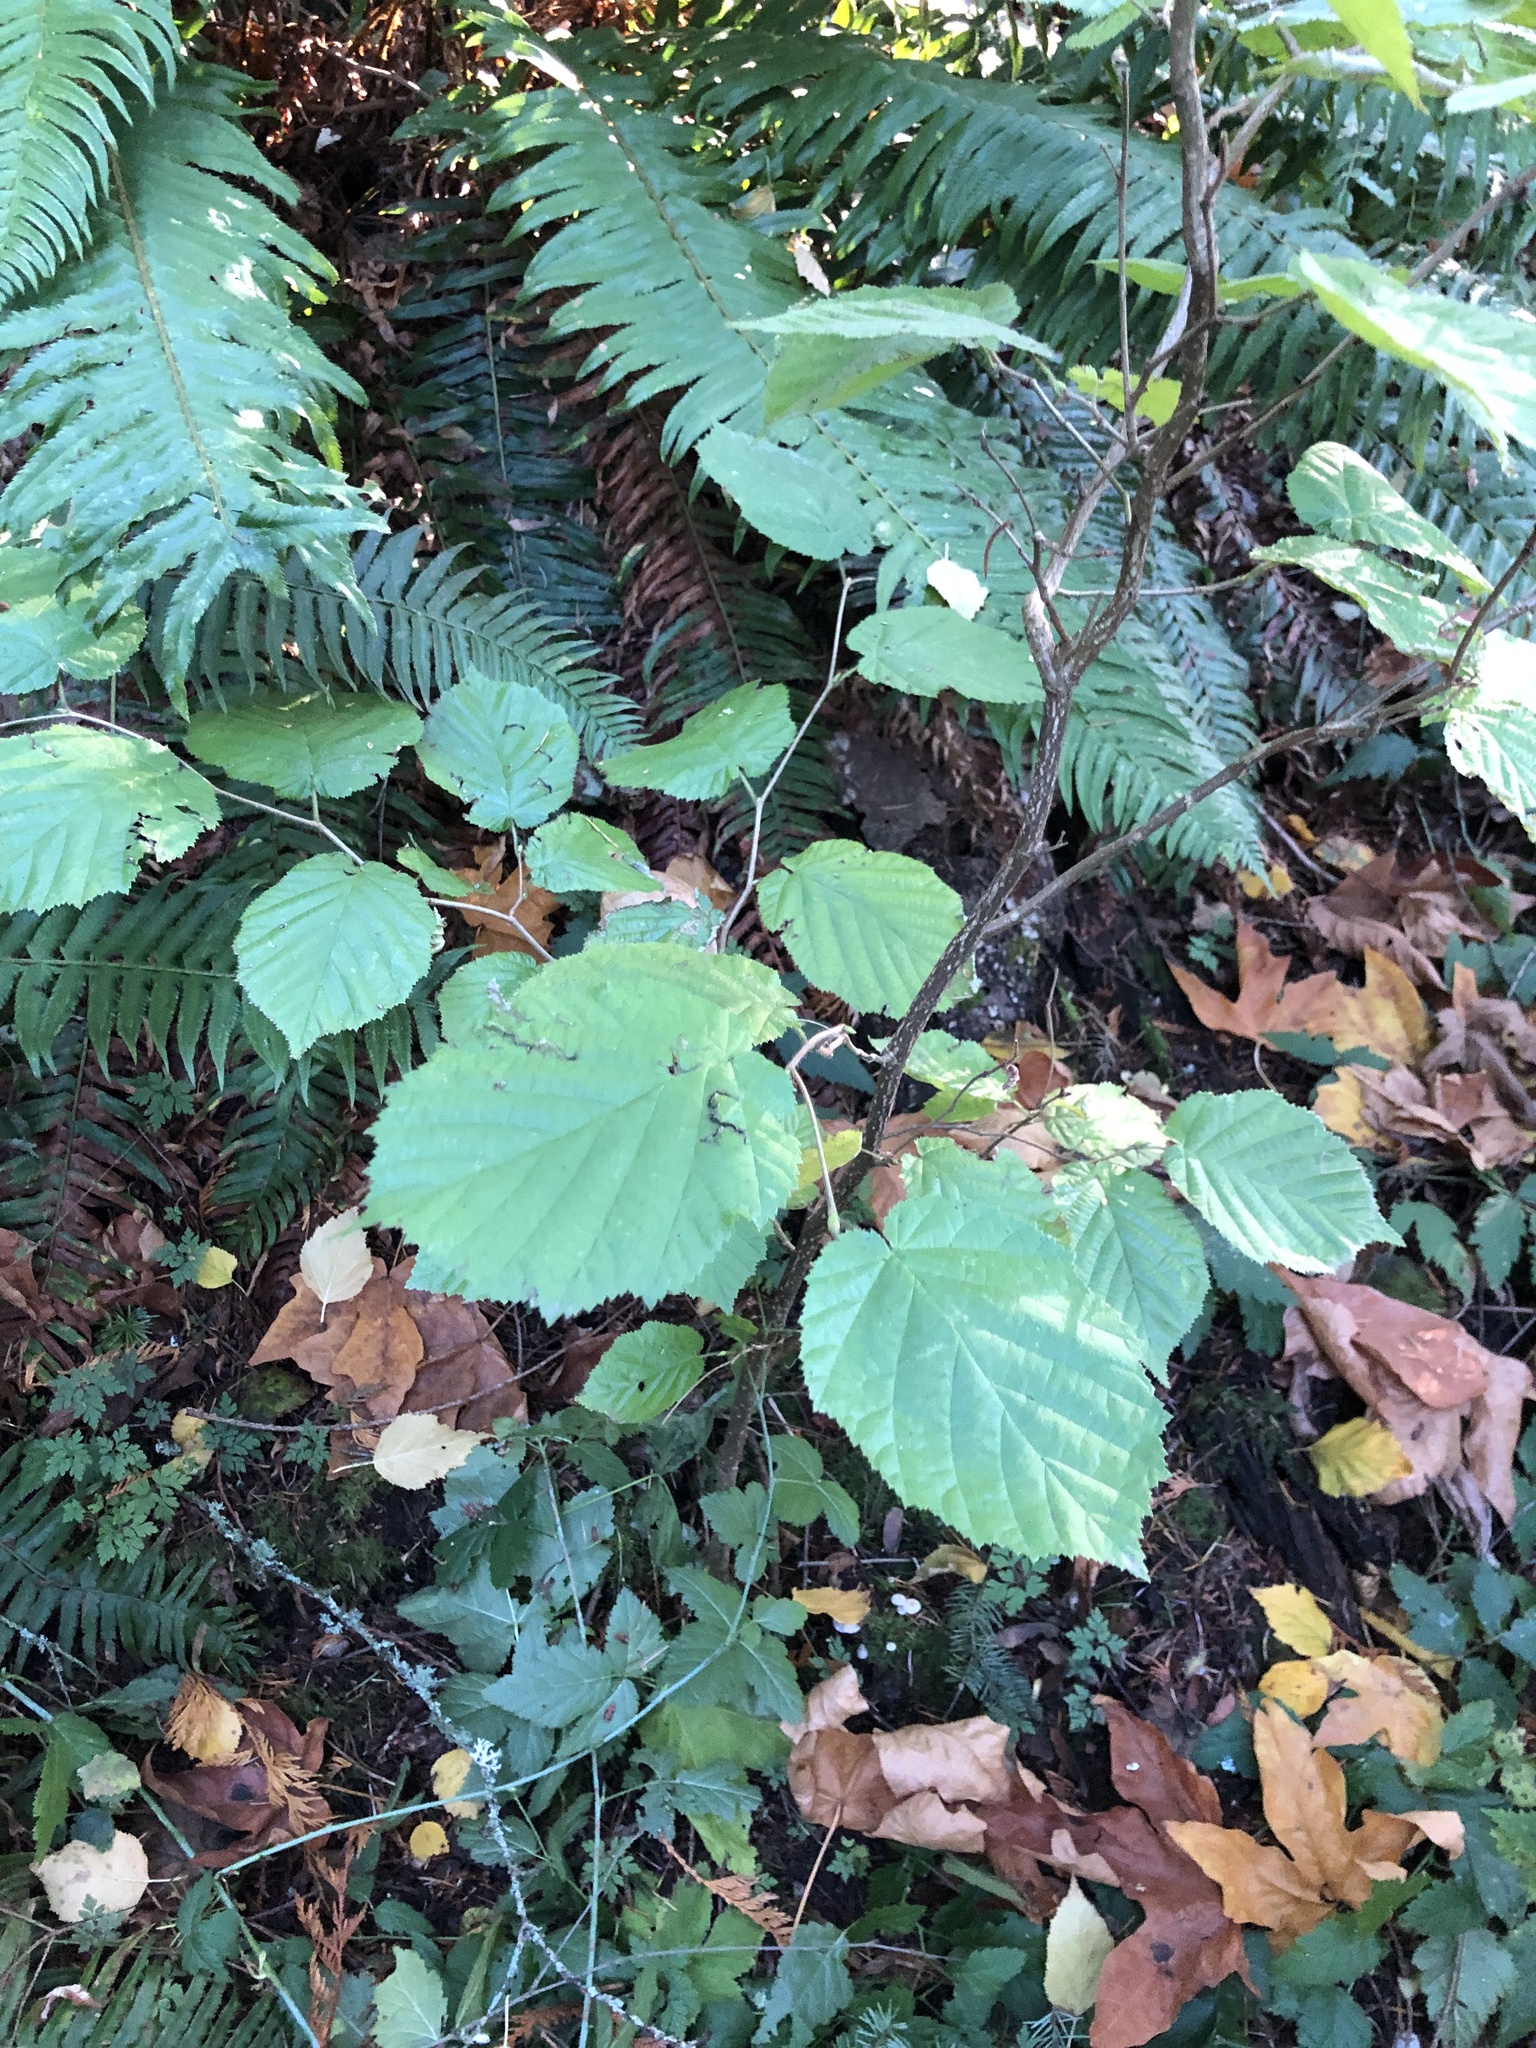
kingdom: Plantae
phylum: Tracheophyta
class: Magnoliopsida
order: Fagales
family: Betulaceae
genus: Corylus
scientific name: Corylus cornuta
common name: Beaked hazel
